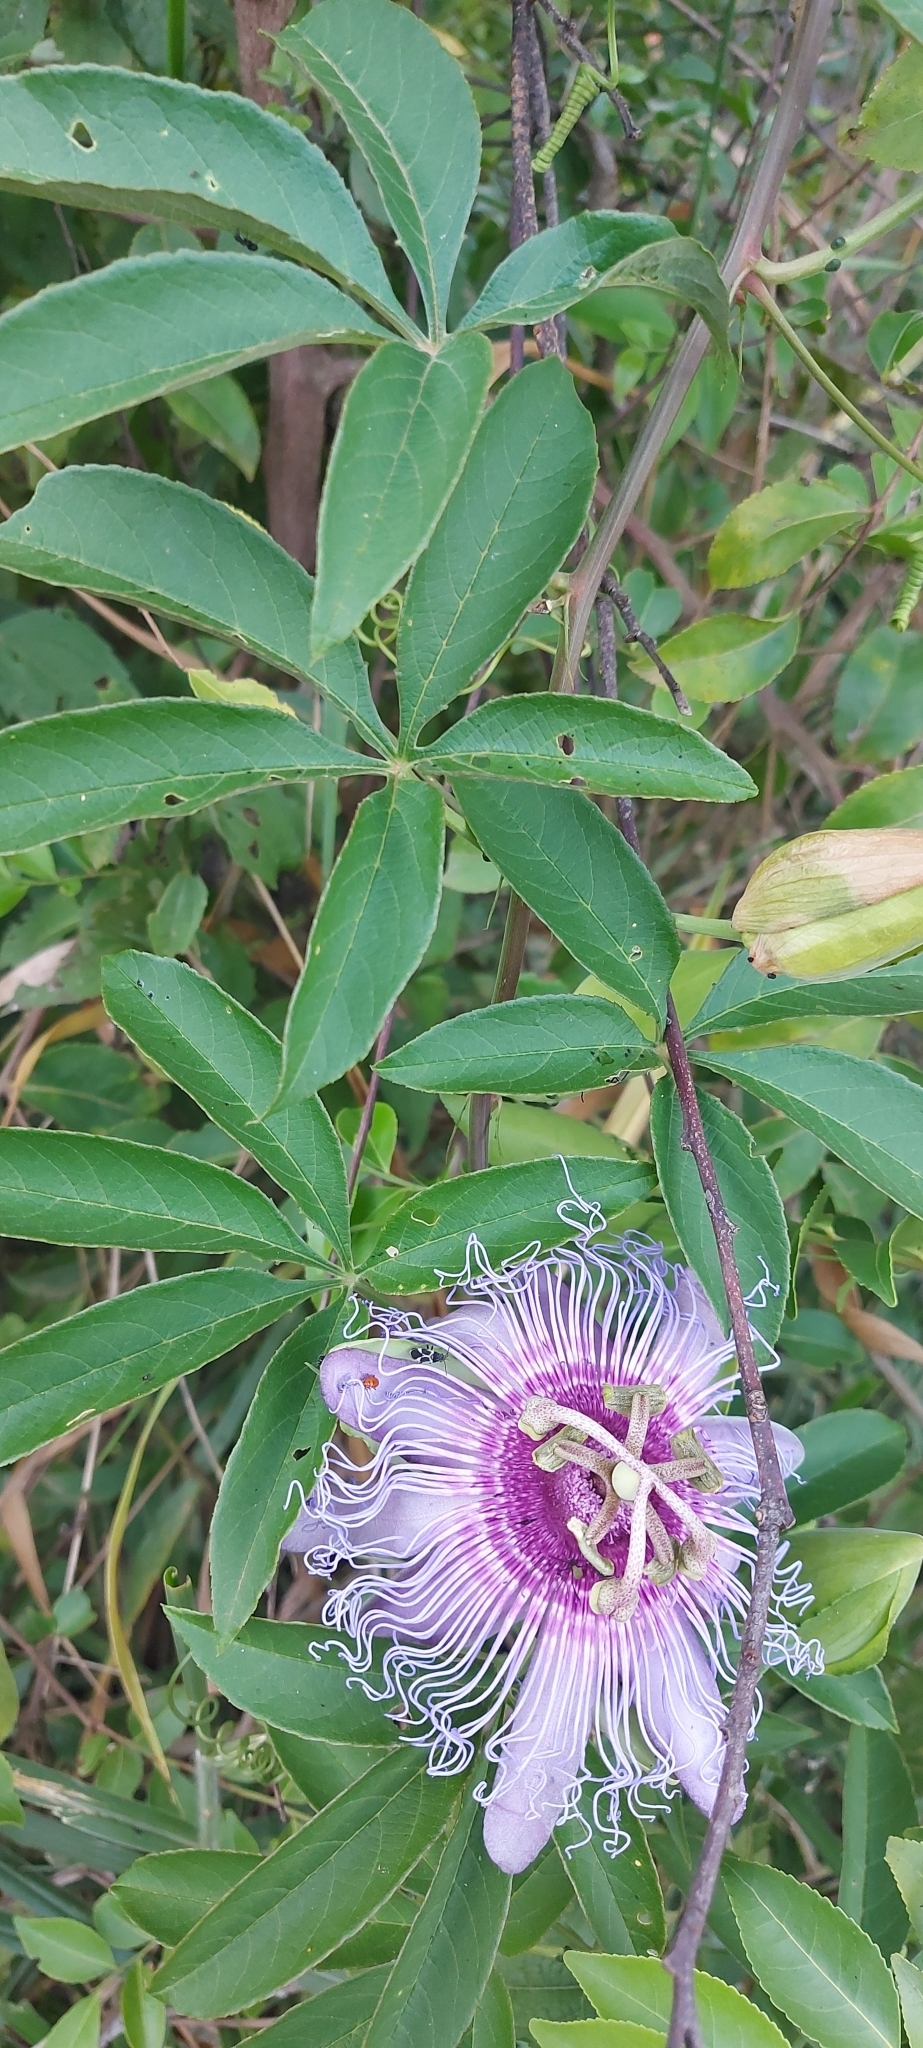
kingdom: Plantae
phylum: Tracheophyta
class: Magnoliopsida
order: Malpighiales
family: Passifloraceae
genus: Passiflora
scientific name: Passiflora cincinnata
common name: Crato passionvine
